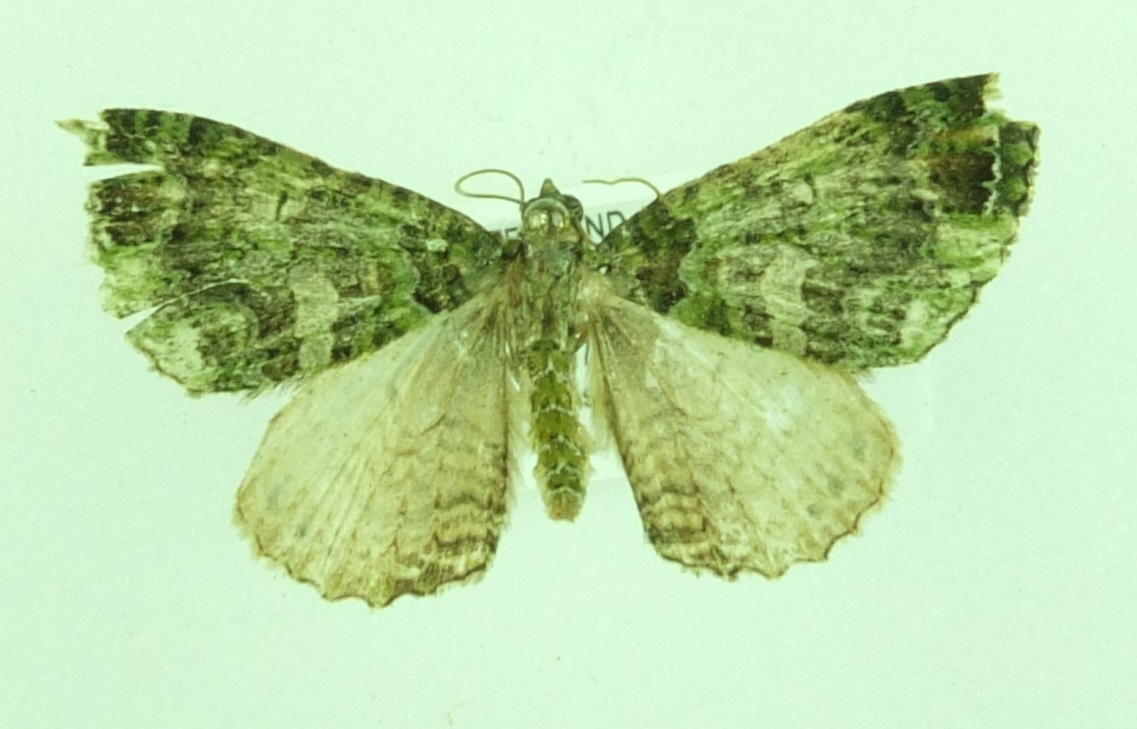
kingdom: Animalia
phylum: Arthropoda
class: Insecta
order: Lepidoptera
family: Geometridae
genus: Austrocidaria
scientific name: Austrocidaria similata
